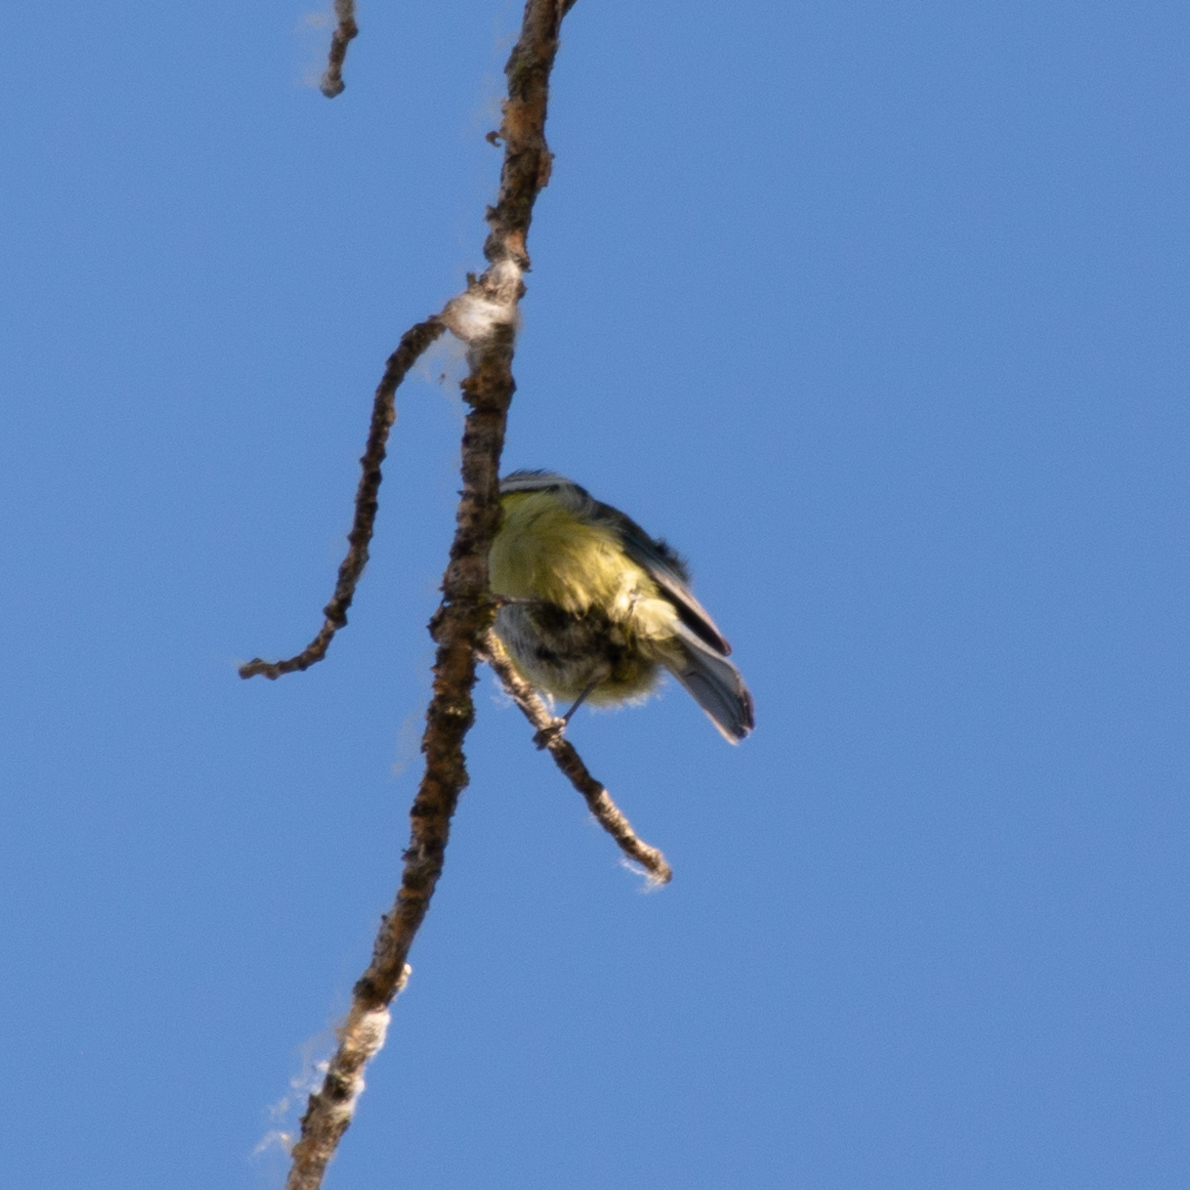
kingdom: Animalia
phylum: Chordata
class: Aves
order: Passeriformes
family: Paridae
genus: Cyanistes
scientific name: Cyanistes caeruleus
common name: Eurasian blue tit
